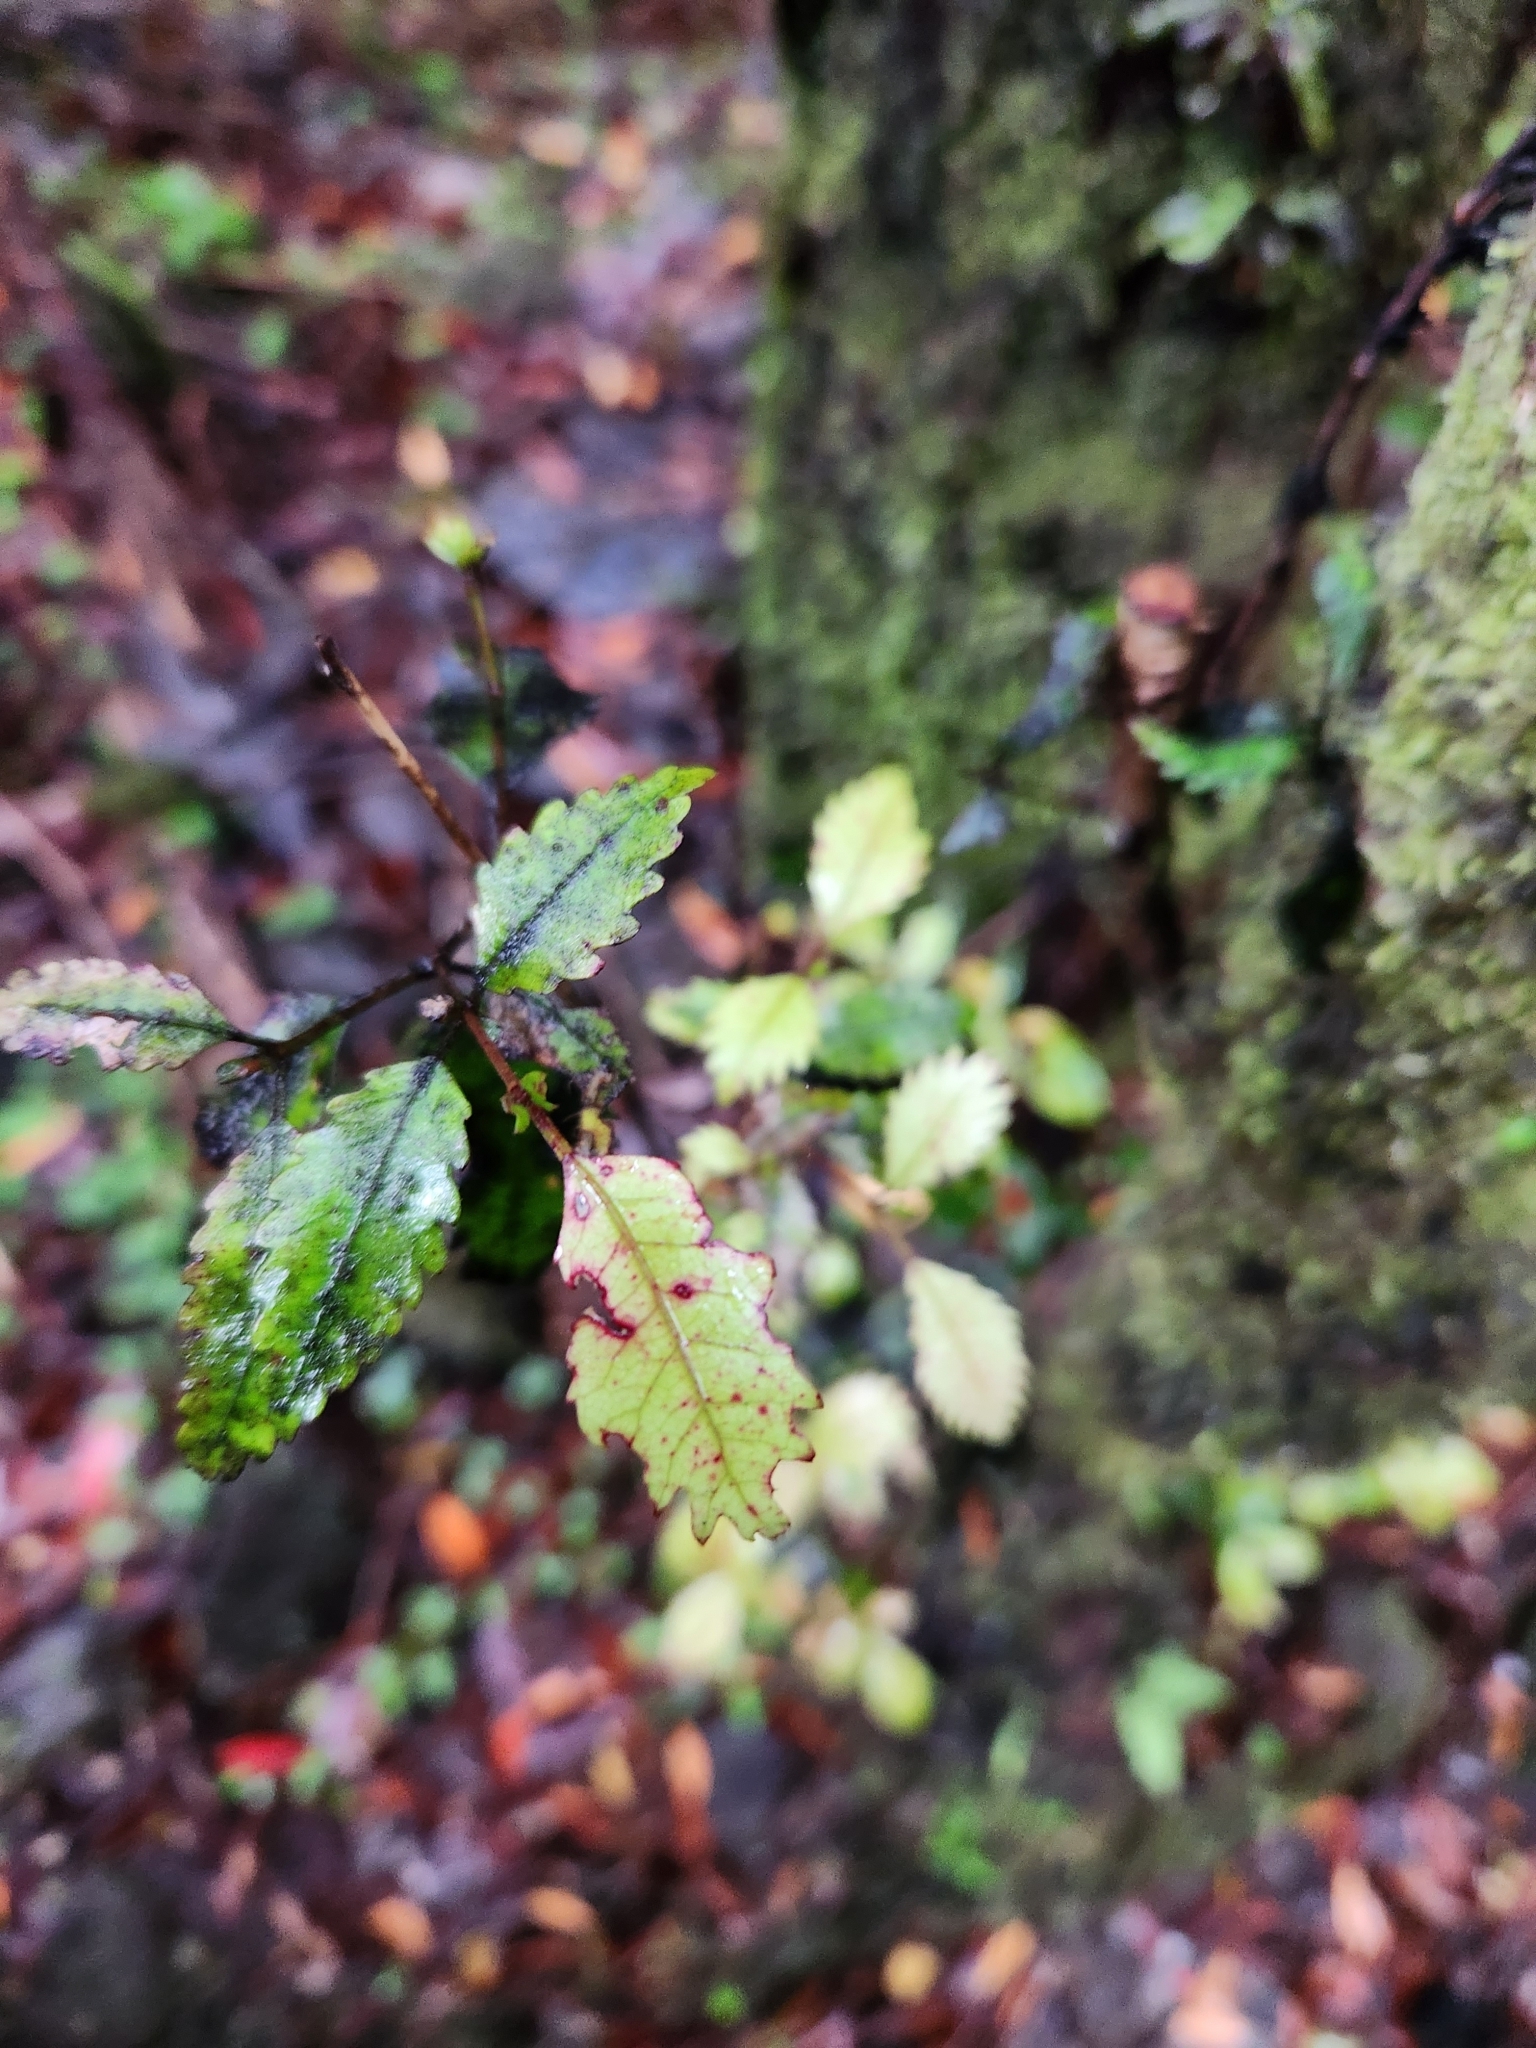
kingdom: Plantae
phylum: Tracheophyta
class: Magnoliopsida
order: Oxalidales
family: Cunoniaceae
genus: Pterophylla
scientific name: Pterophylla racemosa
